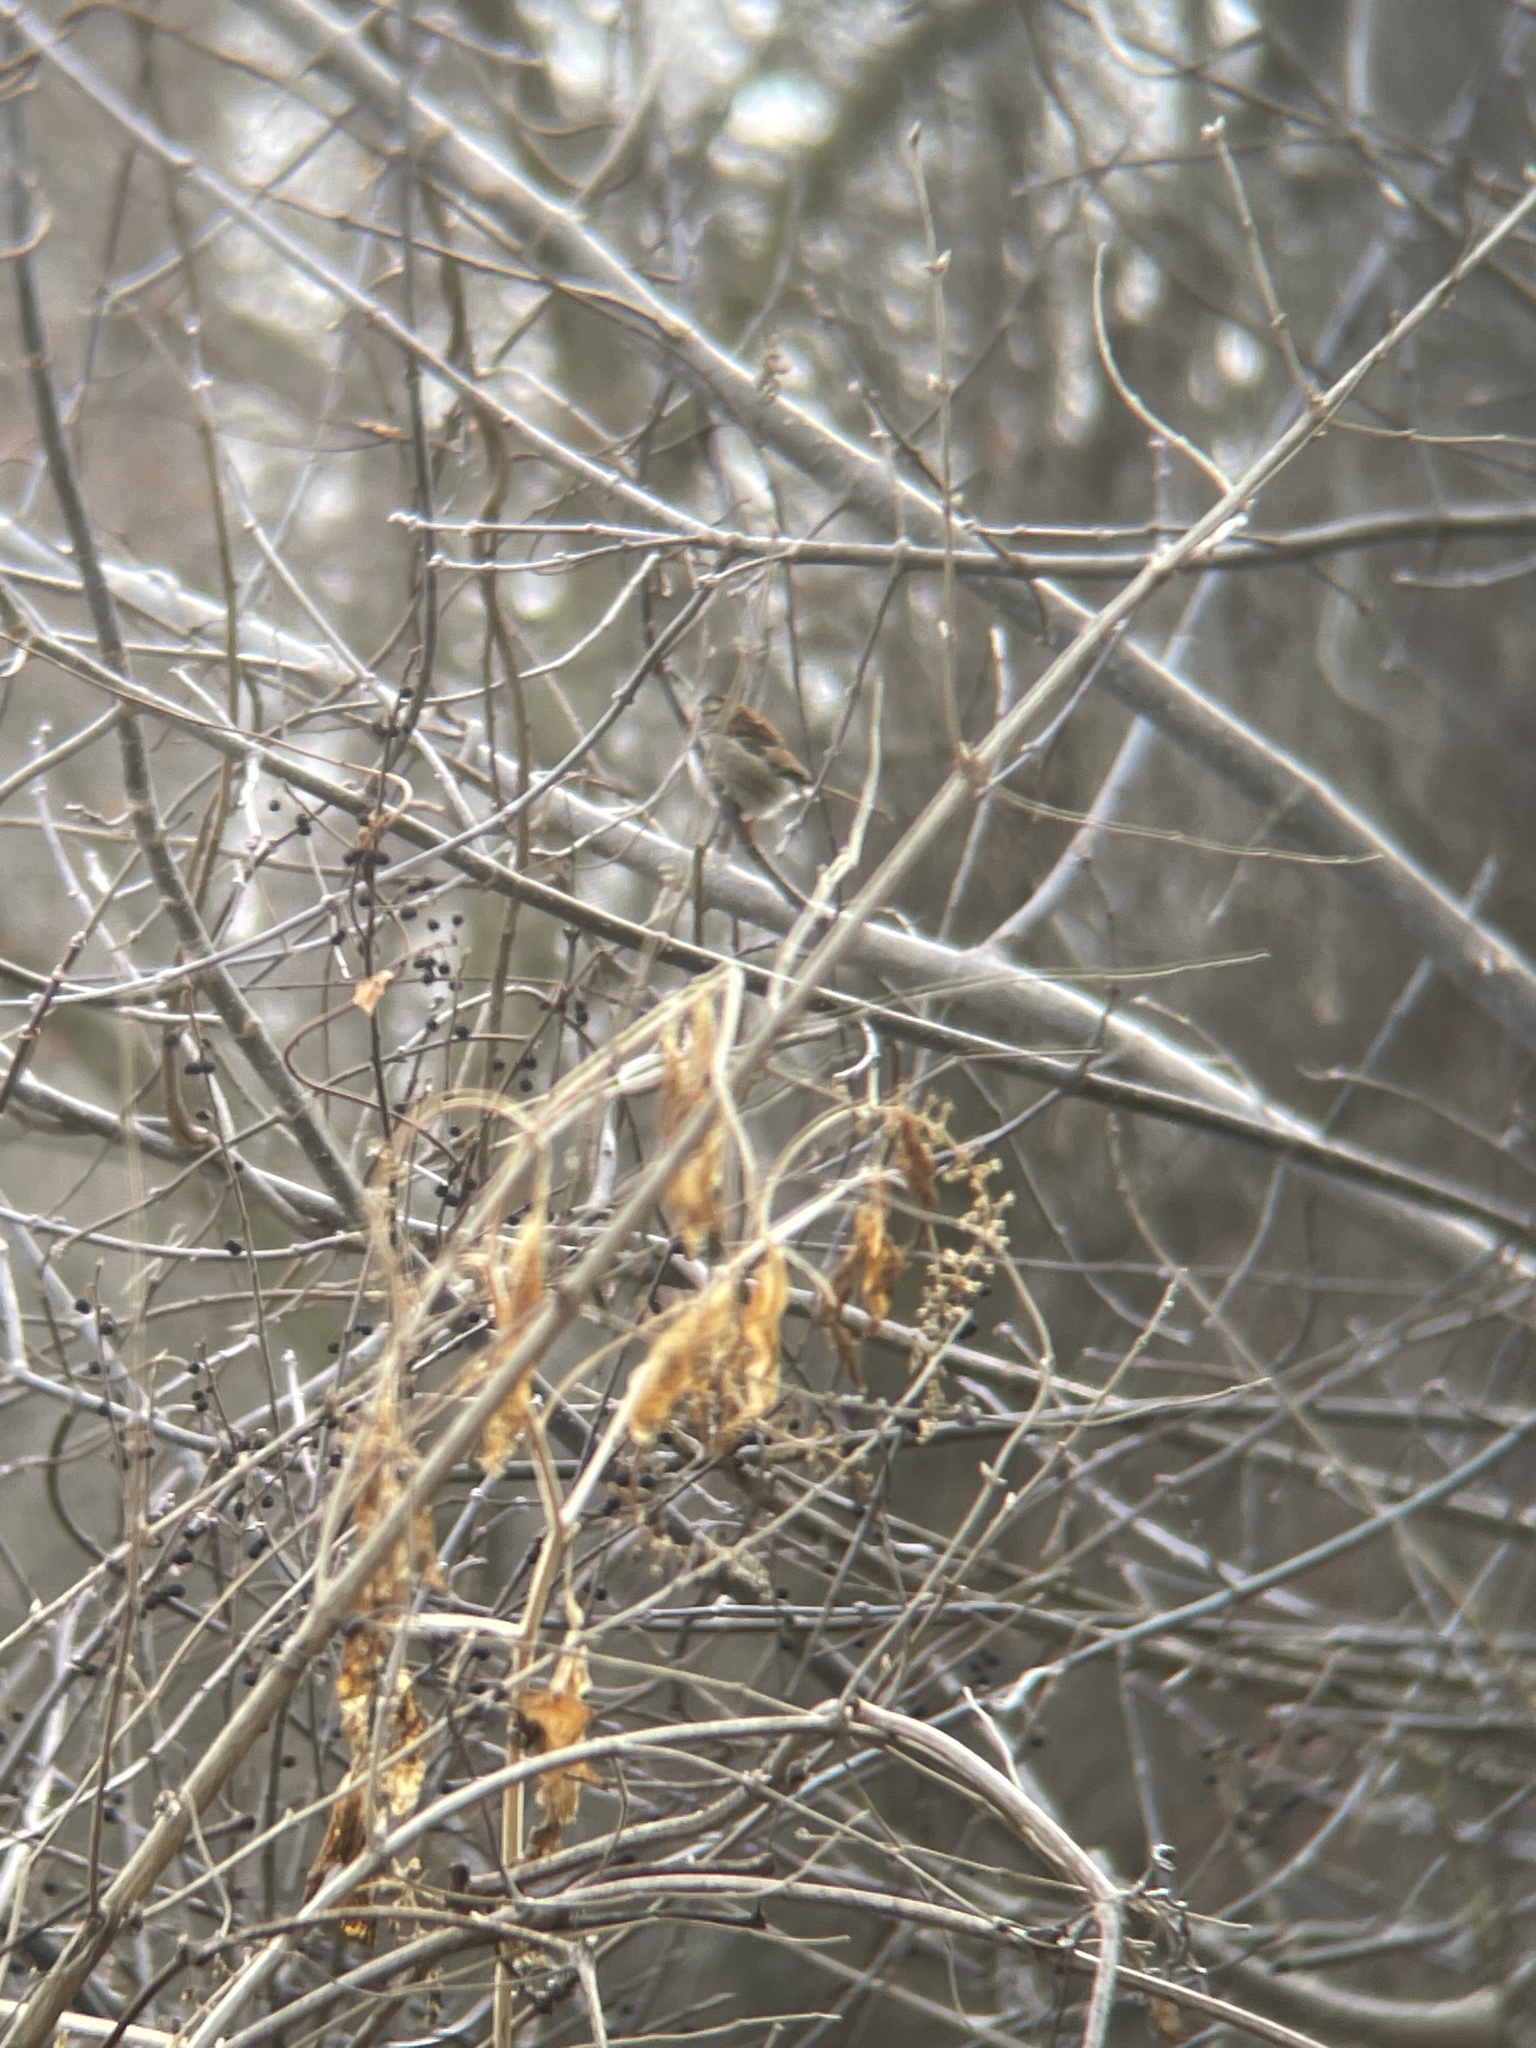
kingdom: Animalia
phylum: Chordata
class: Aves
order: Passeriformes
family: Passerellidae
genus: Zonotrichia
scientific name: Zonotrichia albicollis
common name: White-throated sparrow
